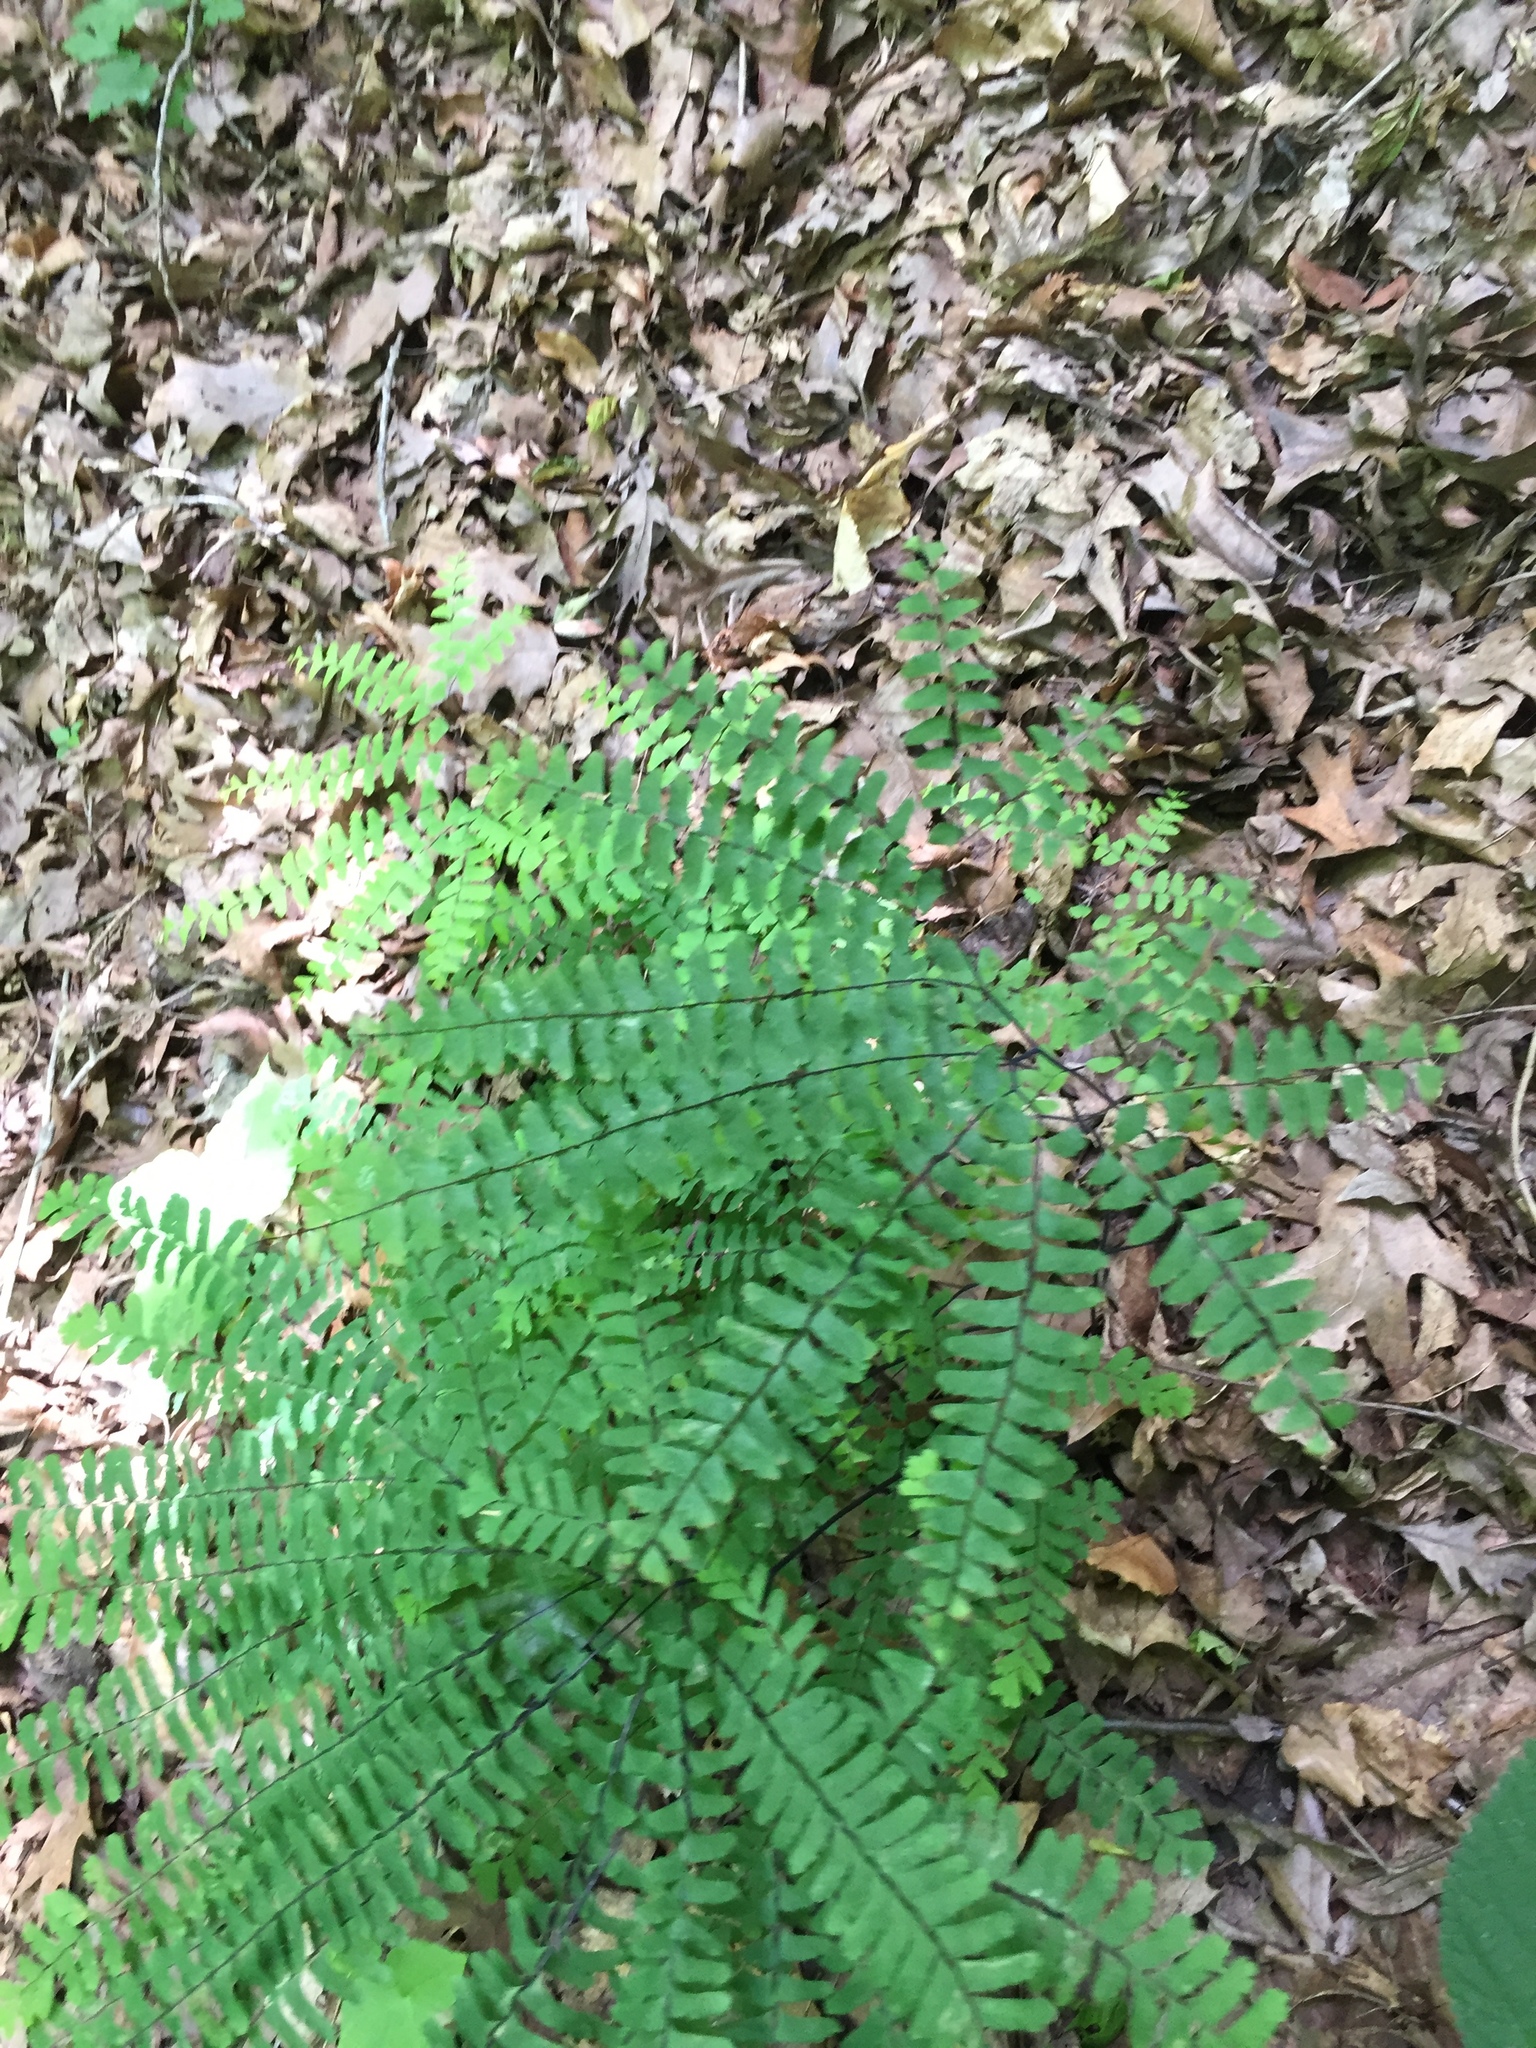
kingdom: Plantae
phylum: Tracheophyta
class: Polypodiopsida
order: Polypodiales
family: Pteridaceae
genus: Adiantum
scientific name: Adiantum pedatum
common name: Five-finger fern
